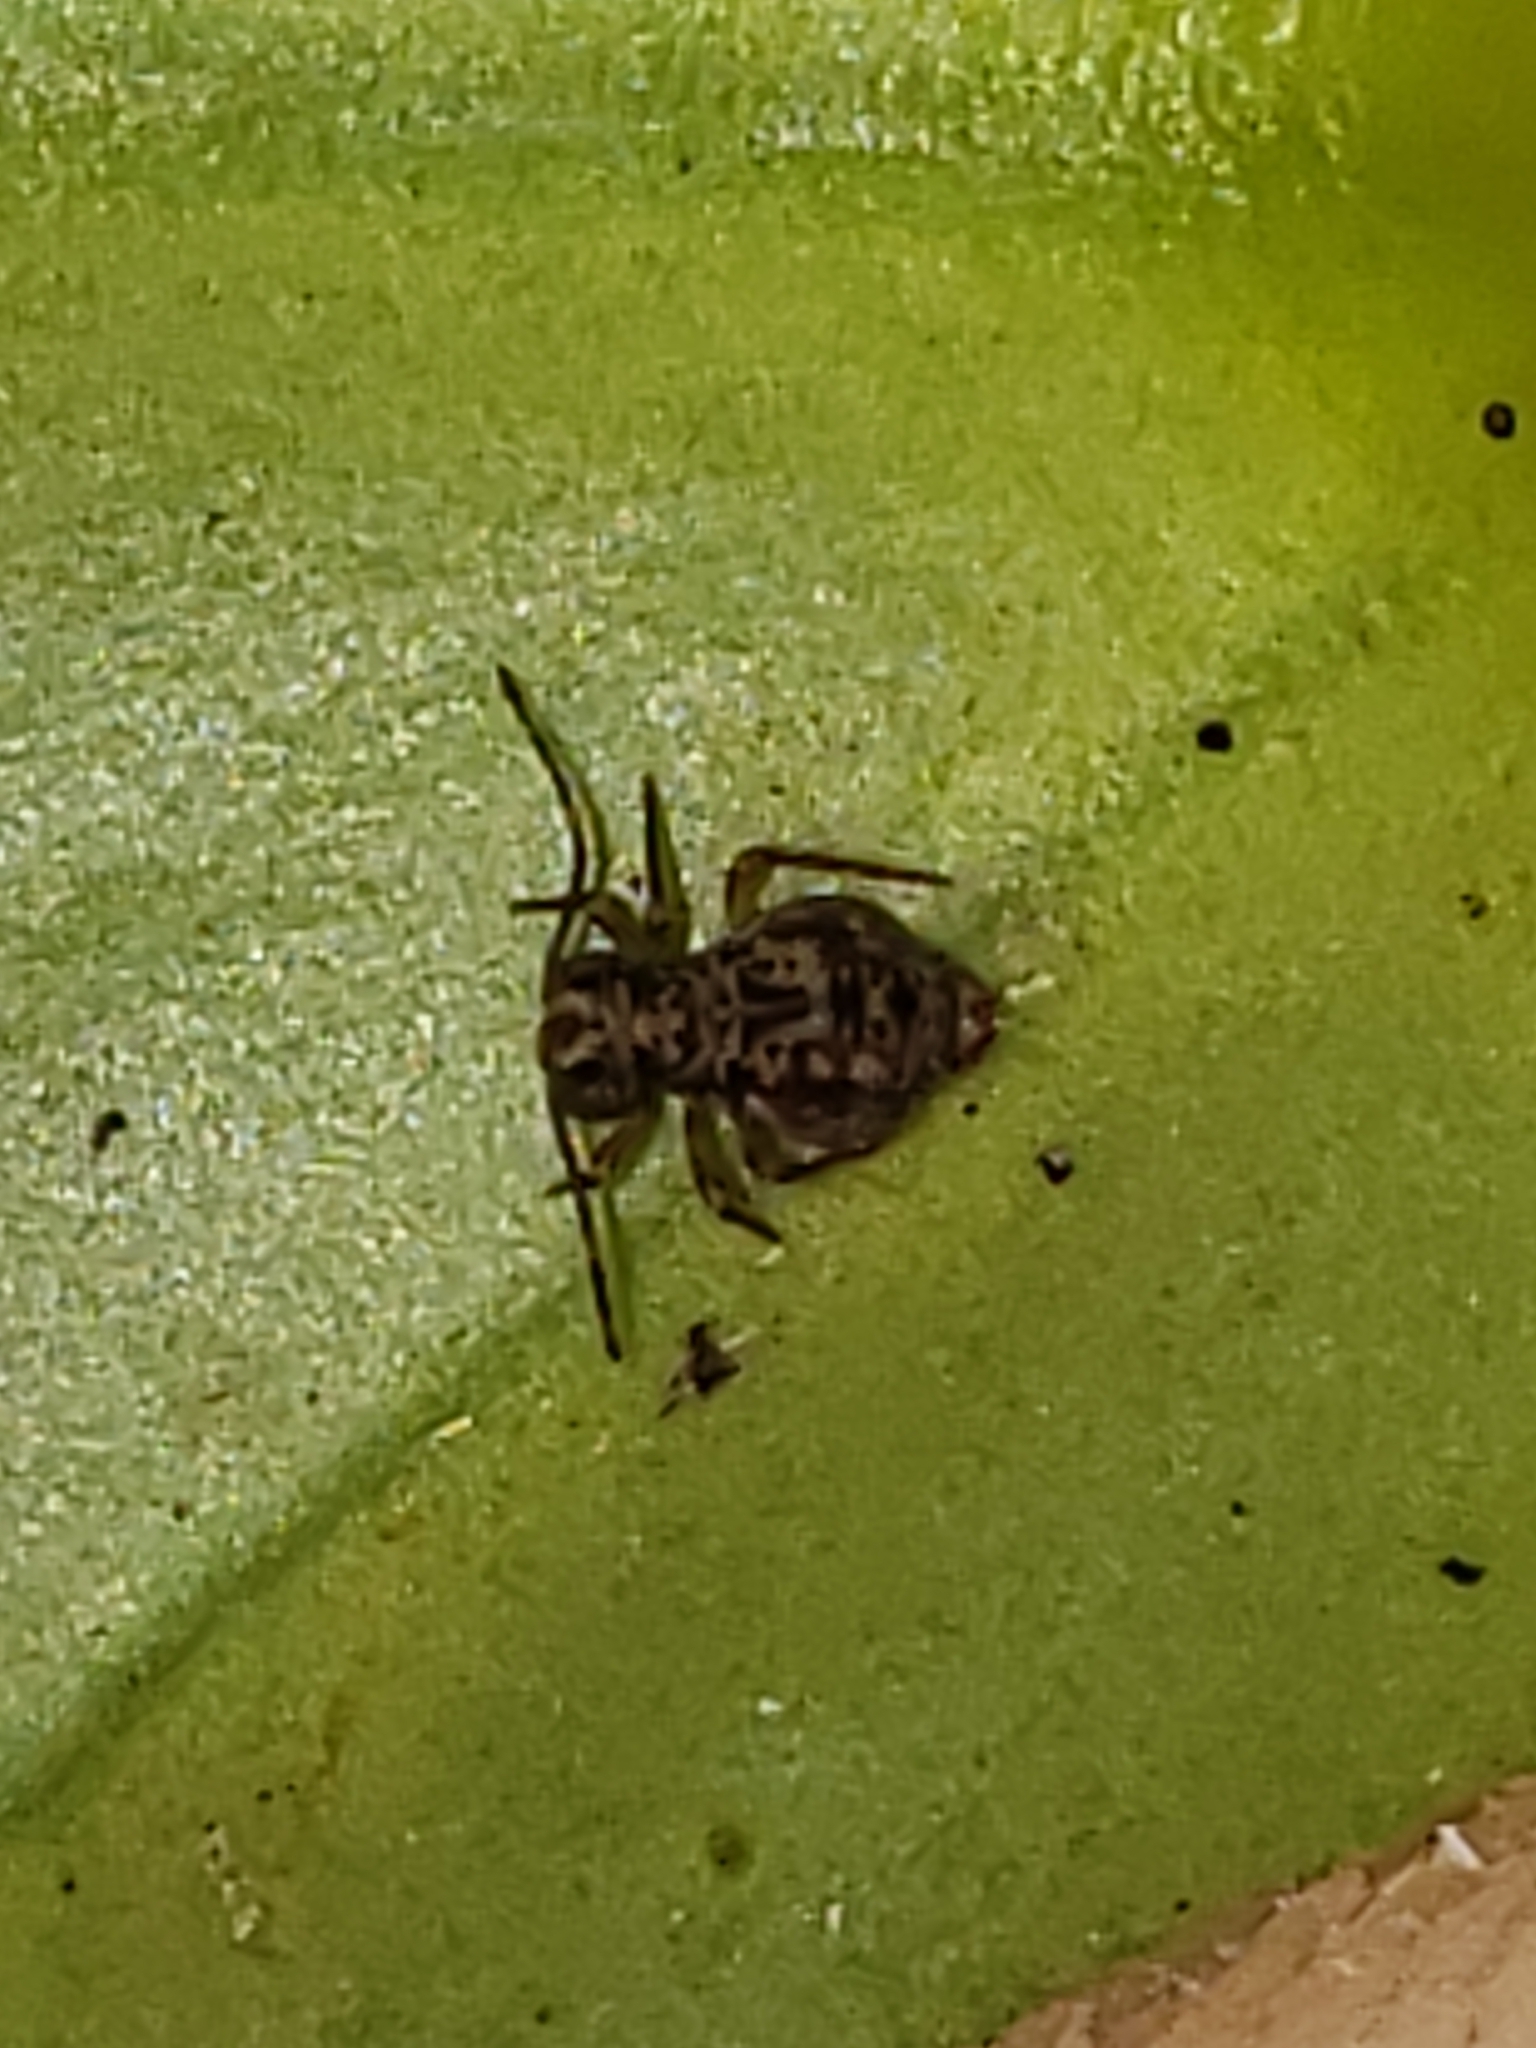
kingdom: Animalia
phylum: Arthropoda
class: Collembola
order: Symphypleona
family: Dicyrtomidae
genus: Ptenothrix
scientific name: Ptenothrix renateae
